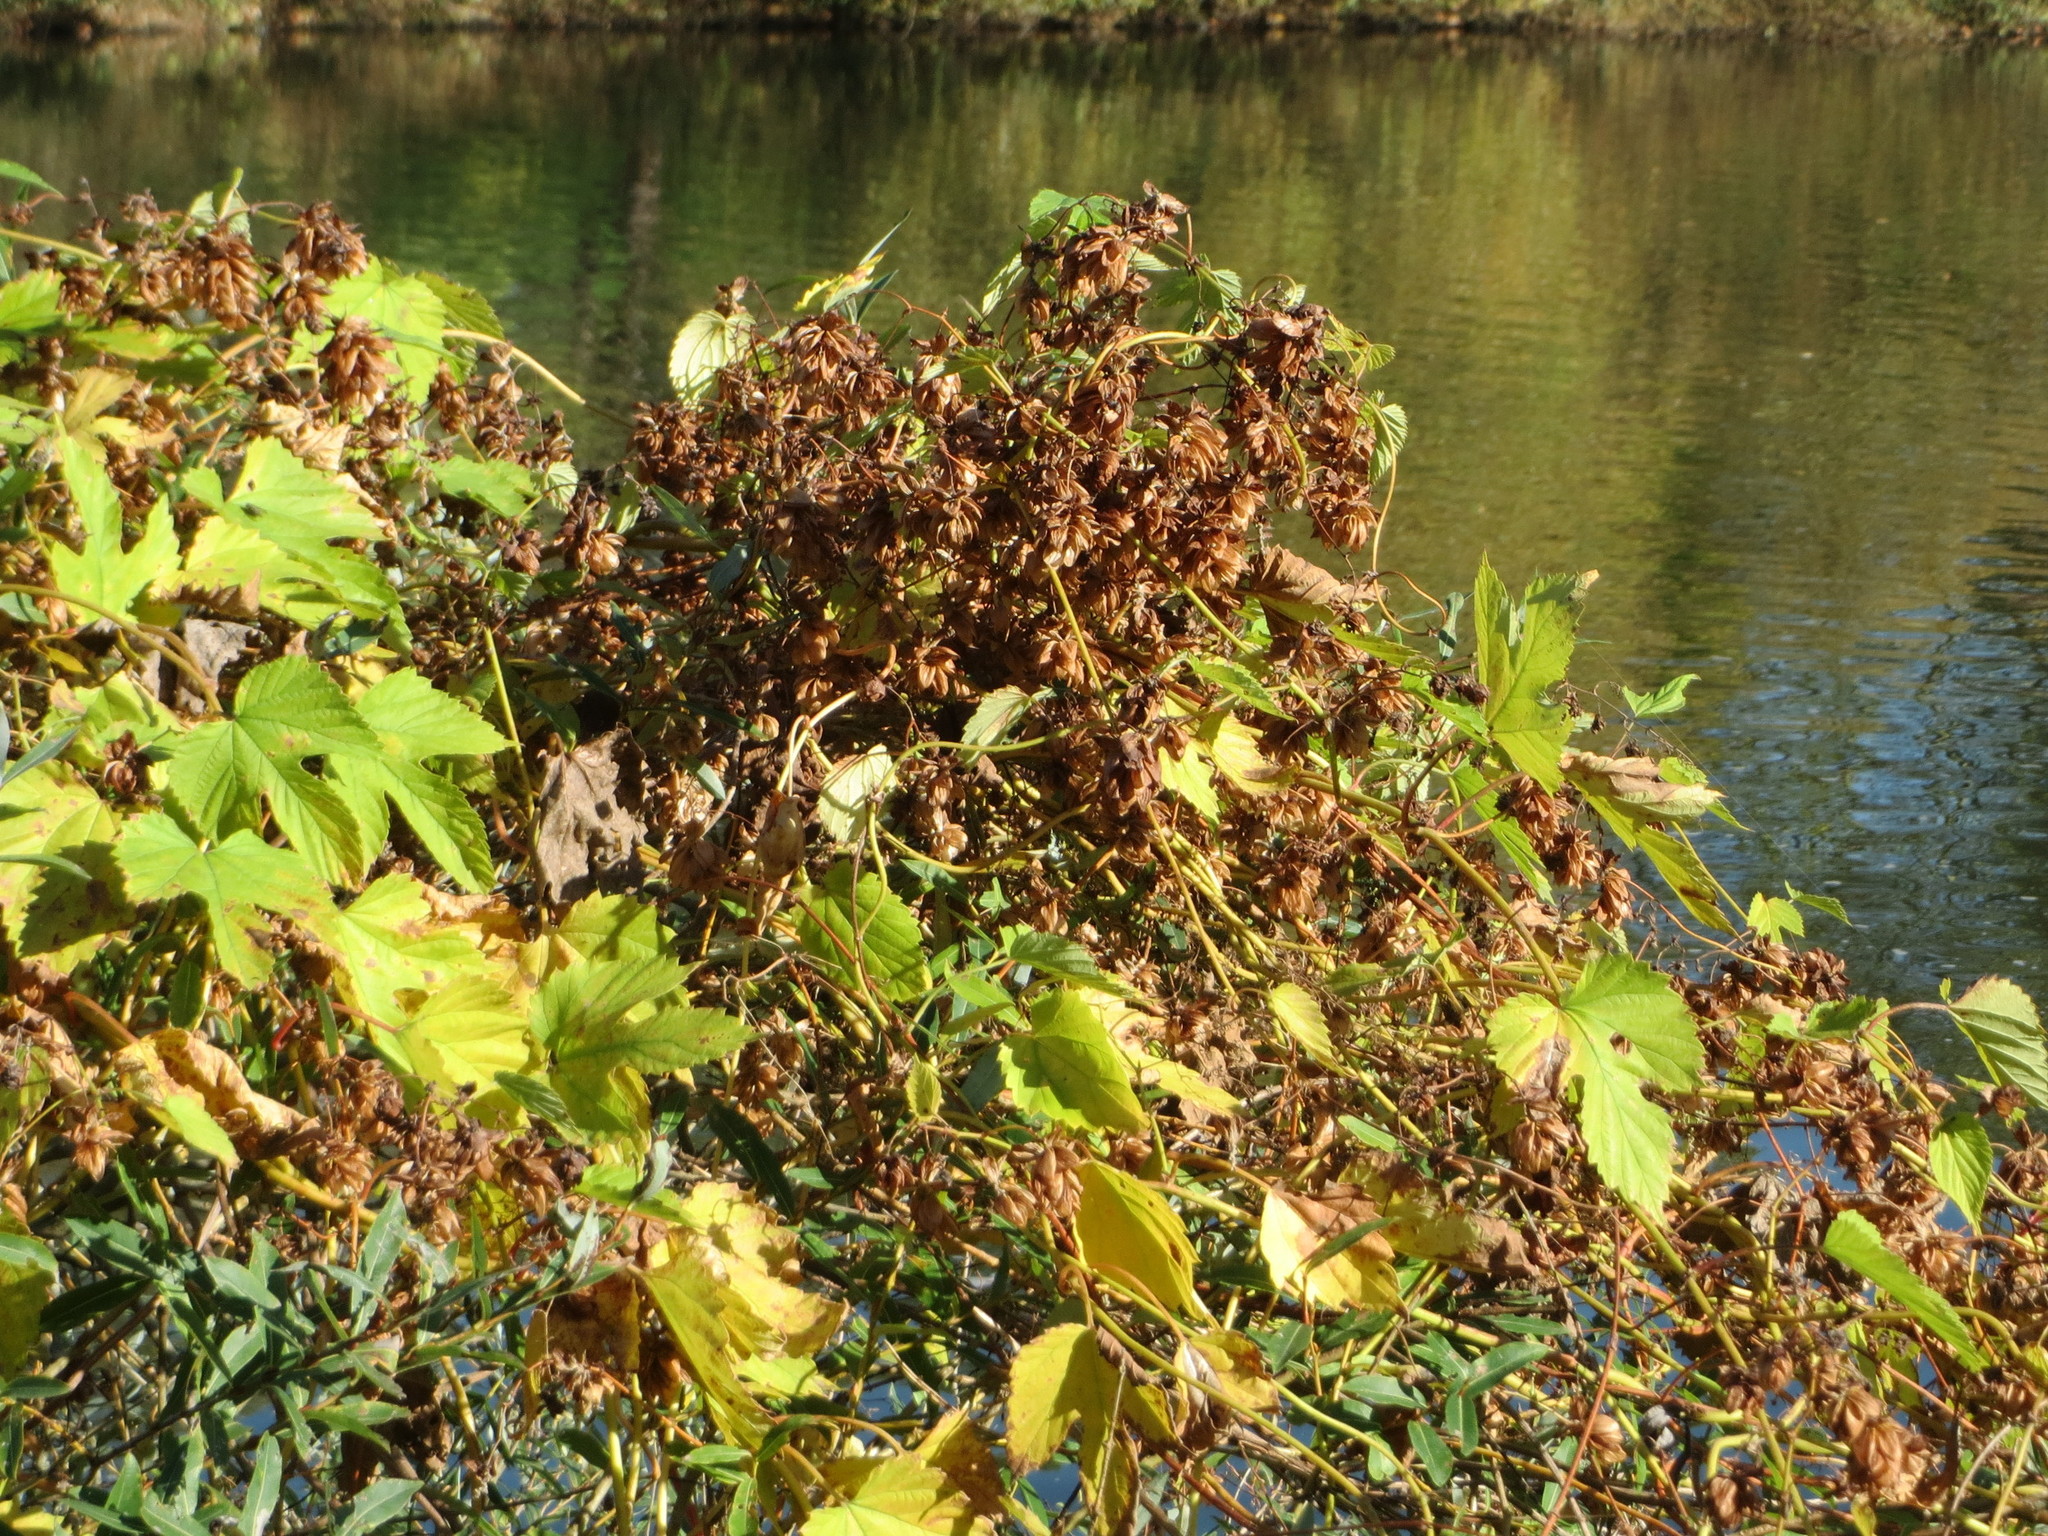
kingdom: Plantae
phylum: Tracheophyta
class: Magnoliopsida
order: Rosales
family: Cannabaceae
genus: Humulus
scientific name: Humulus lupulus
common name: Hop
